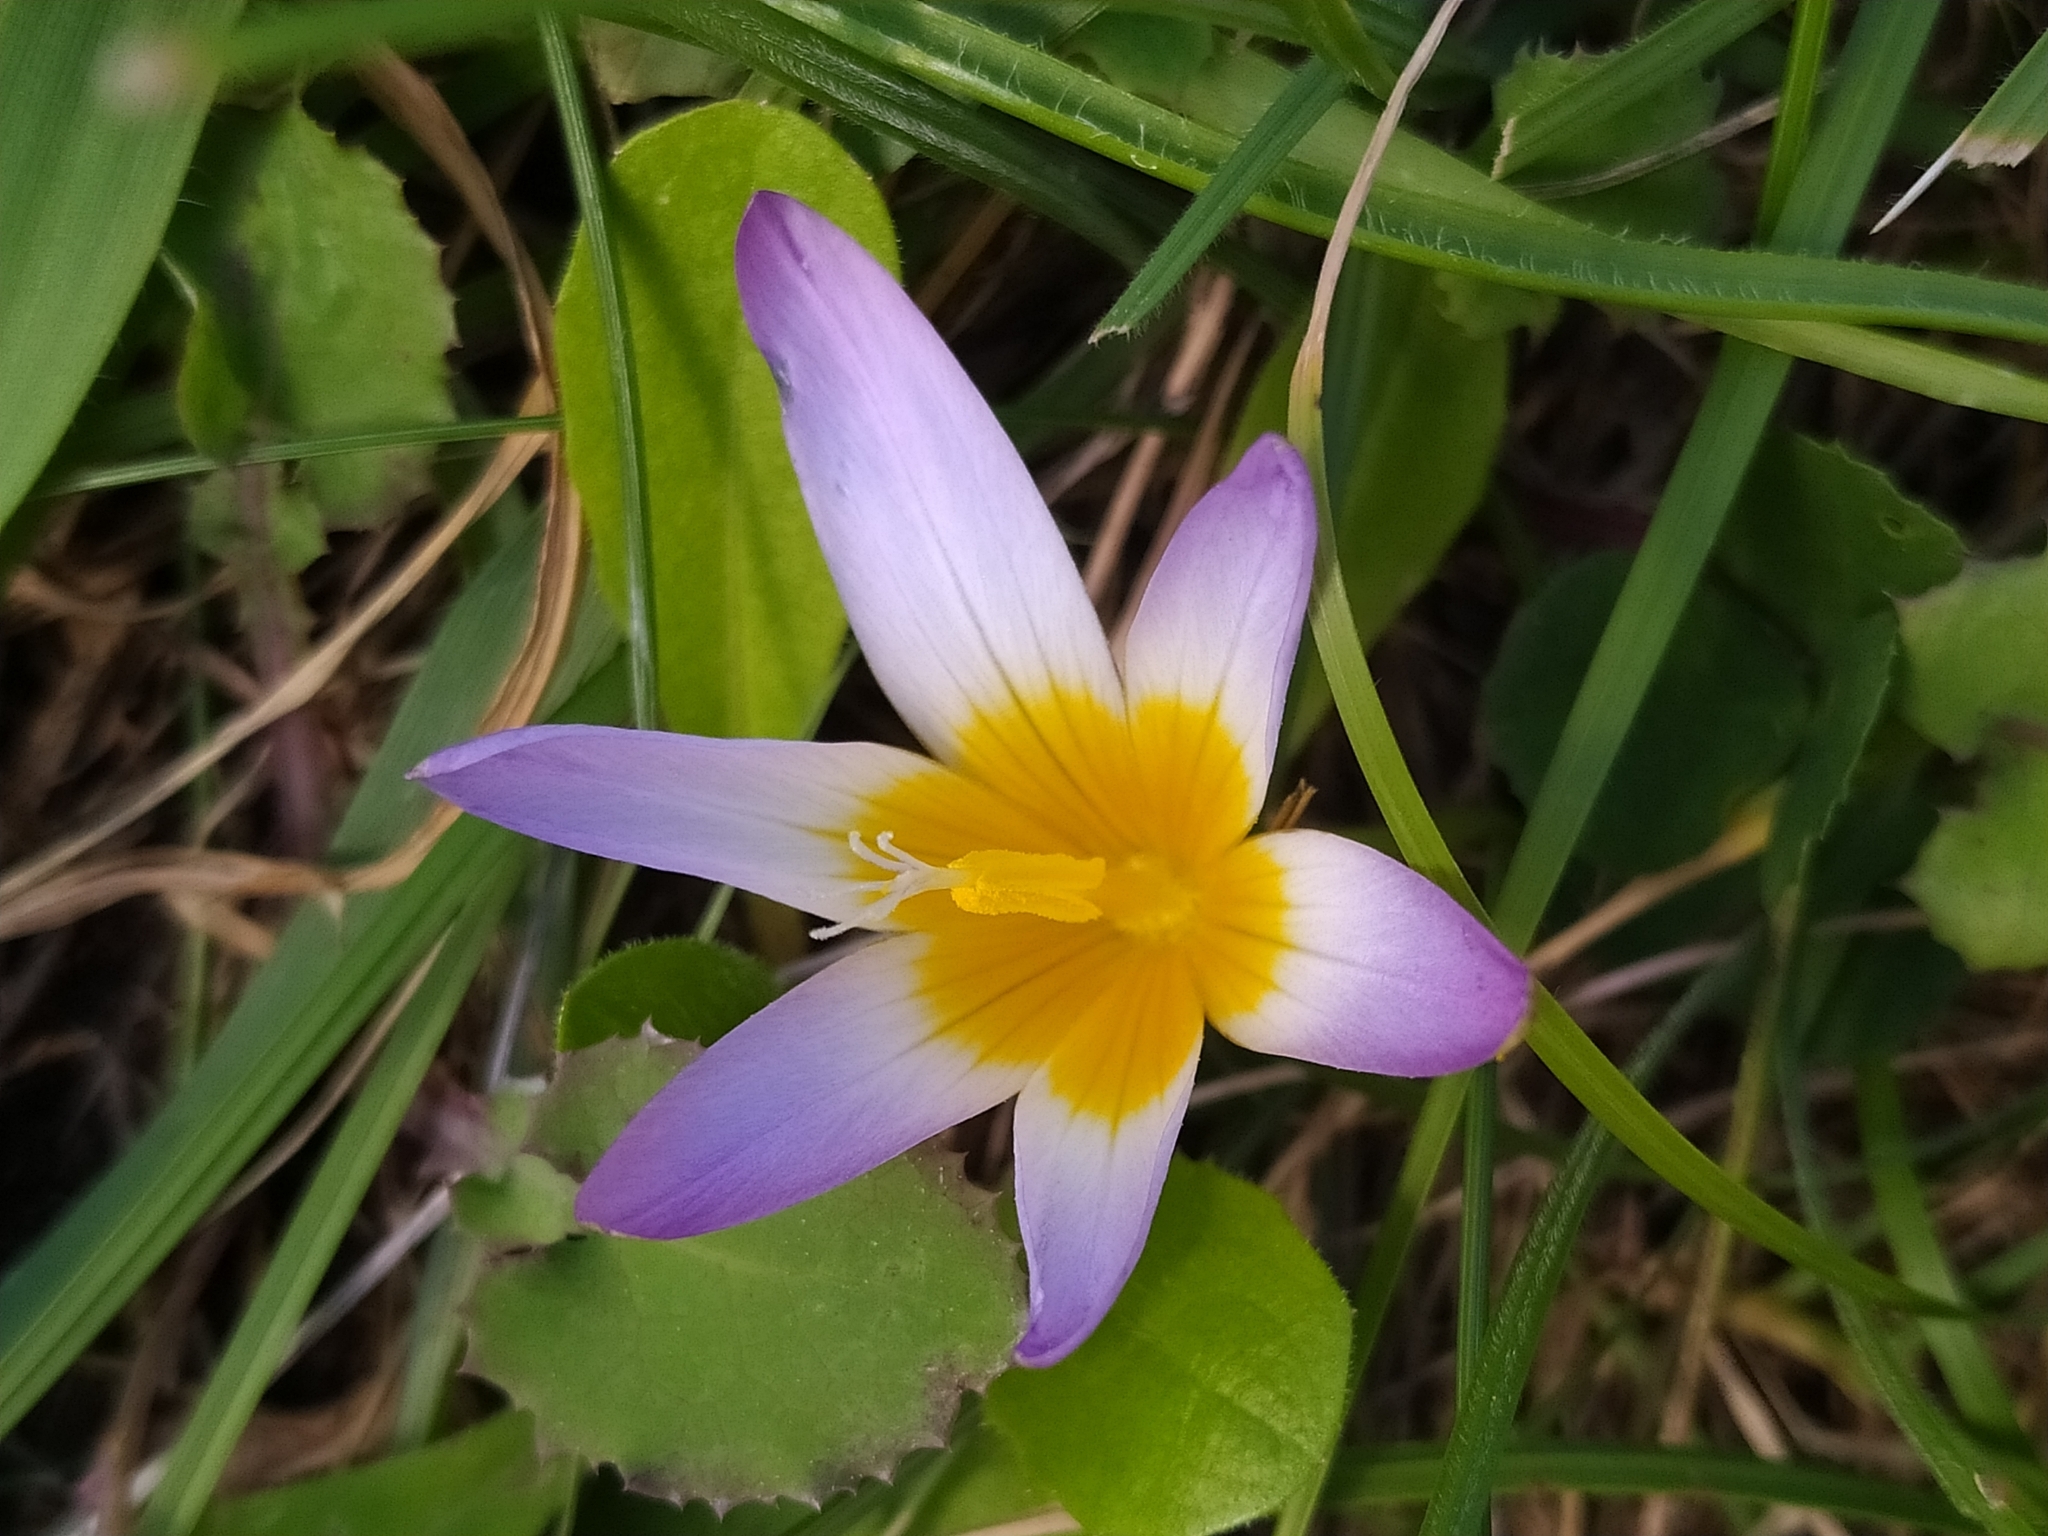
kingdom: Plantae
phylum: Tracheophyta
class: Liliopsida
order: Asparagales
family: Iridaceae
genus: Romulea
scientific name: Romulea bulbocodium
